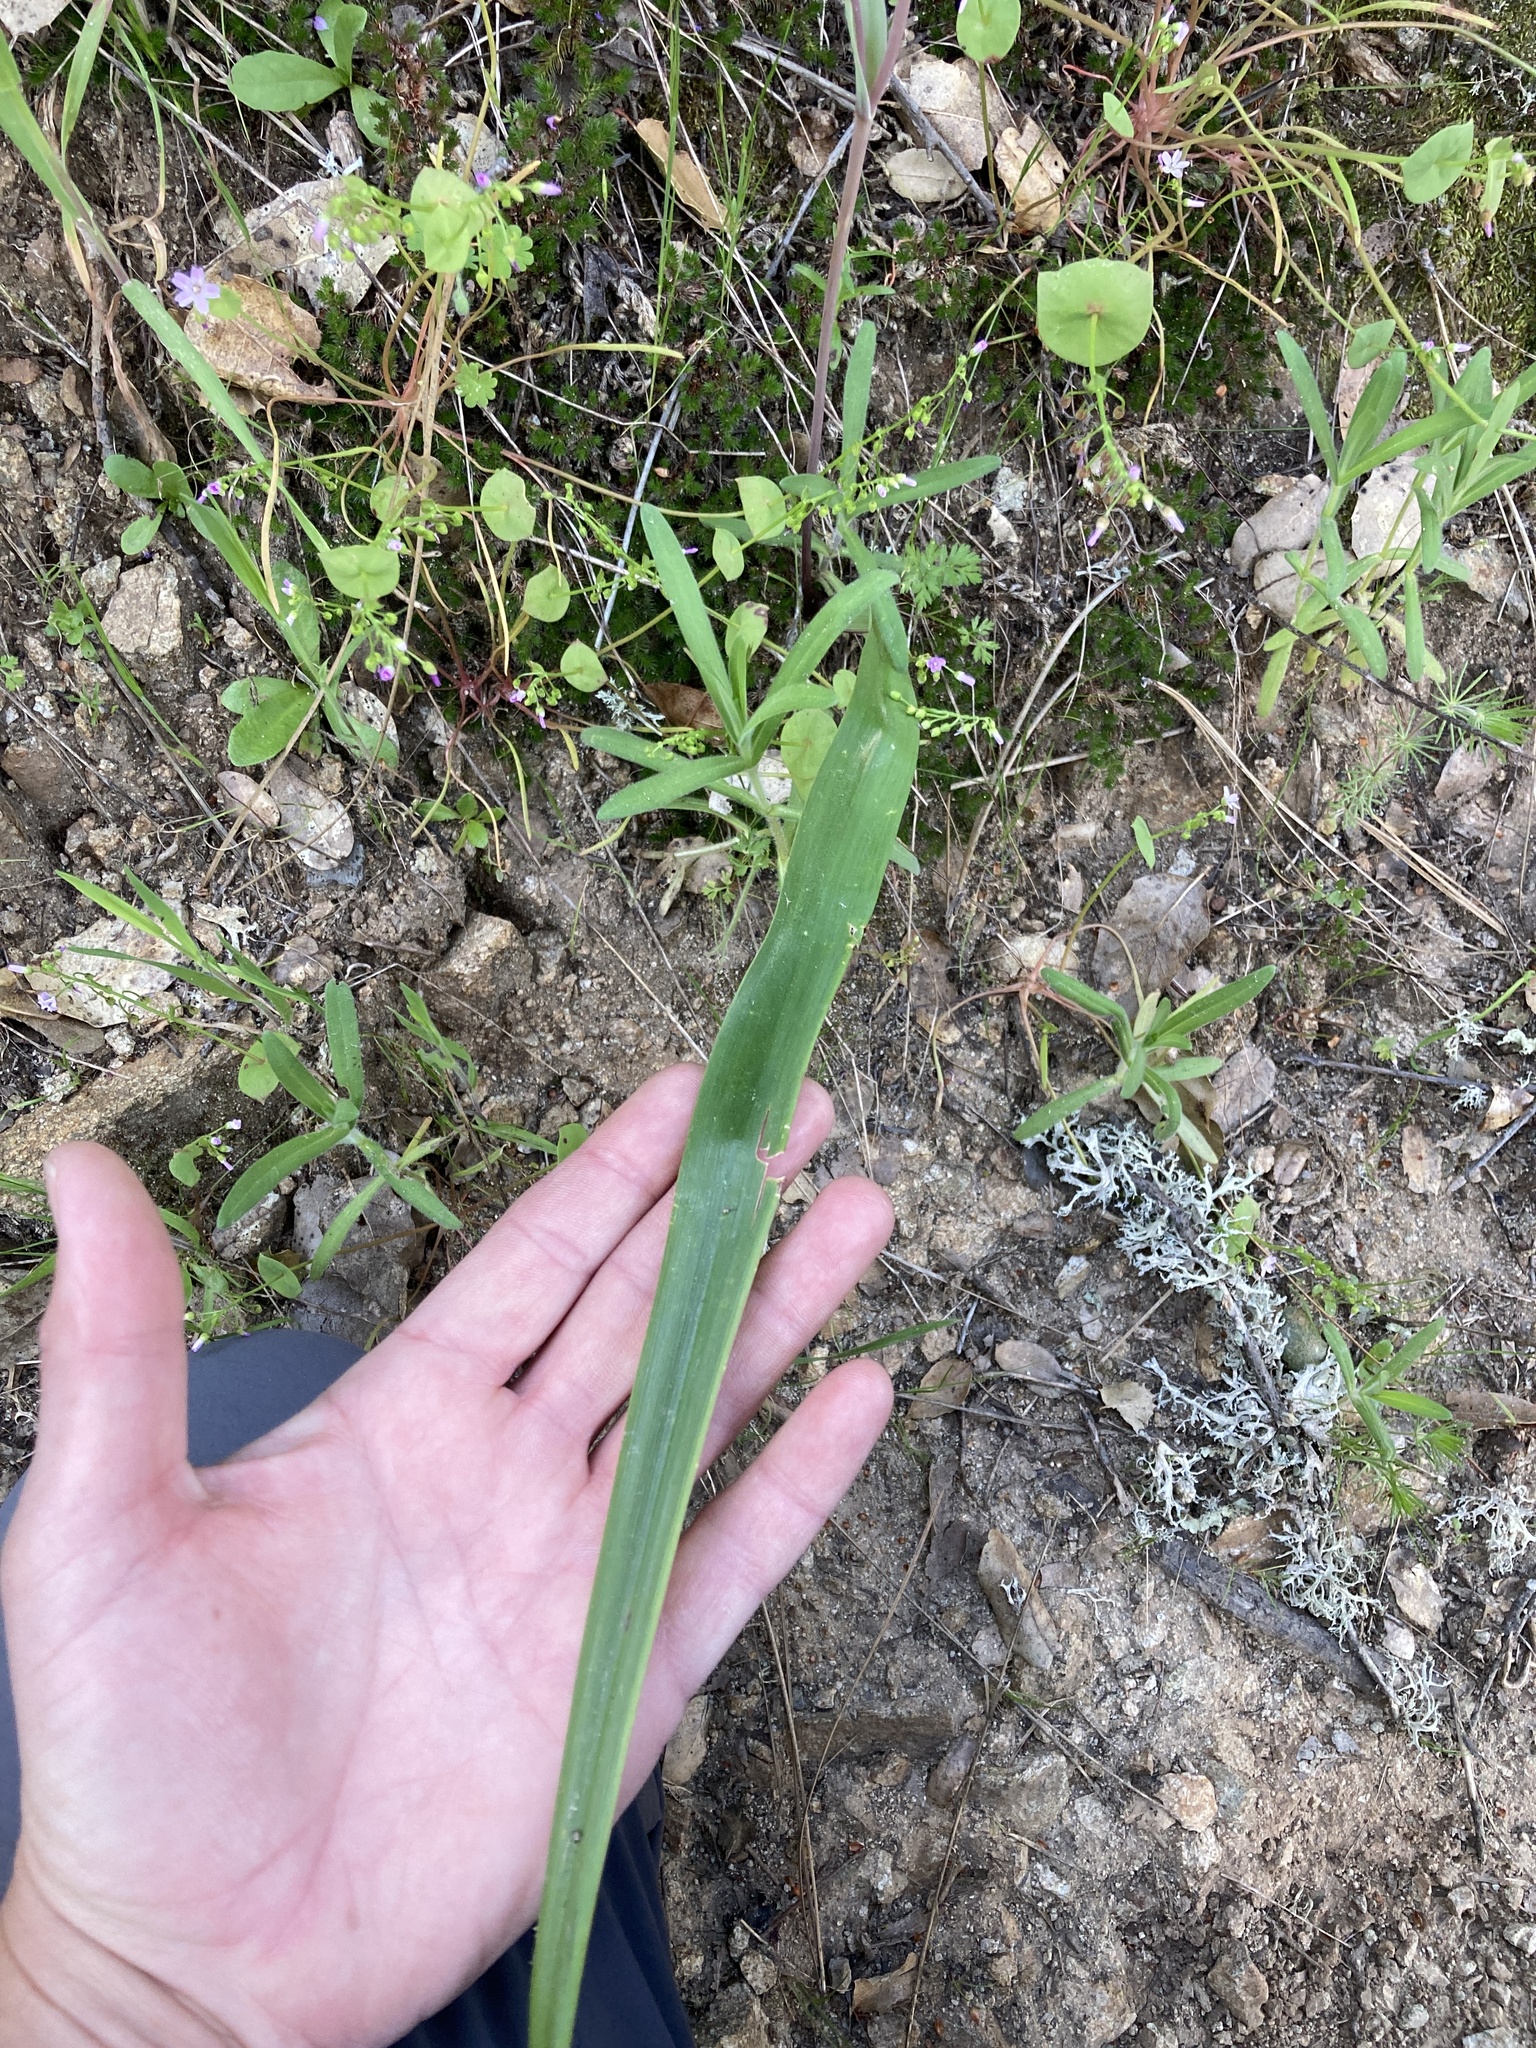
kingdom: Plantae
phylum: Tracheophyta
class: Liliopsida
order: Liliales
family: Liliaceae
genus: Calochortus
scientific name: Calochortus albus
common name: Fairy-lantern
